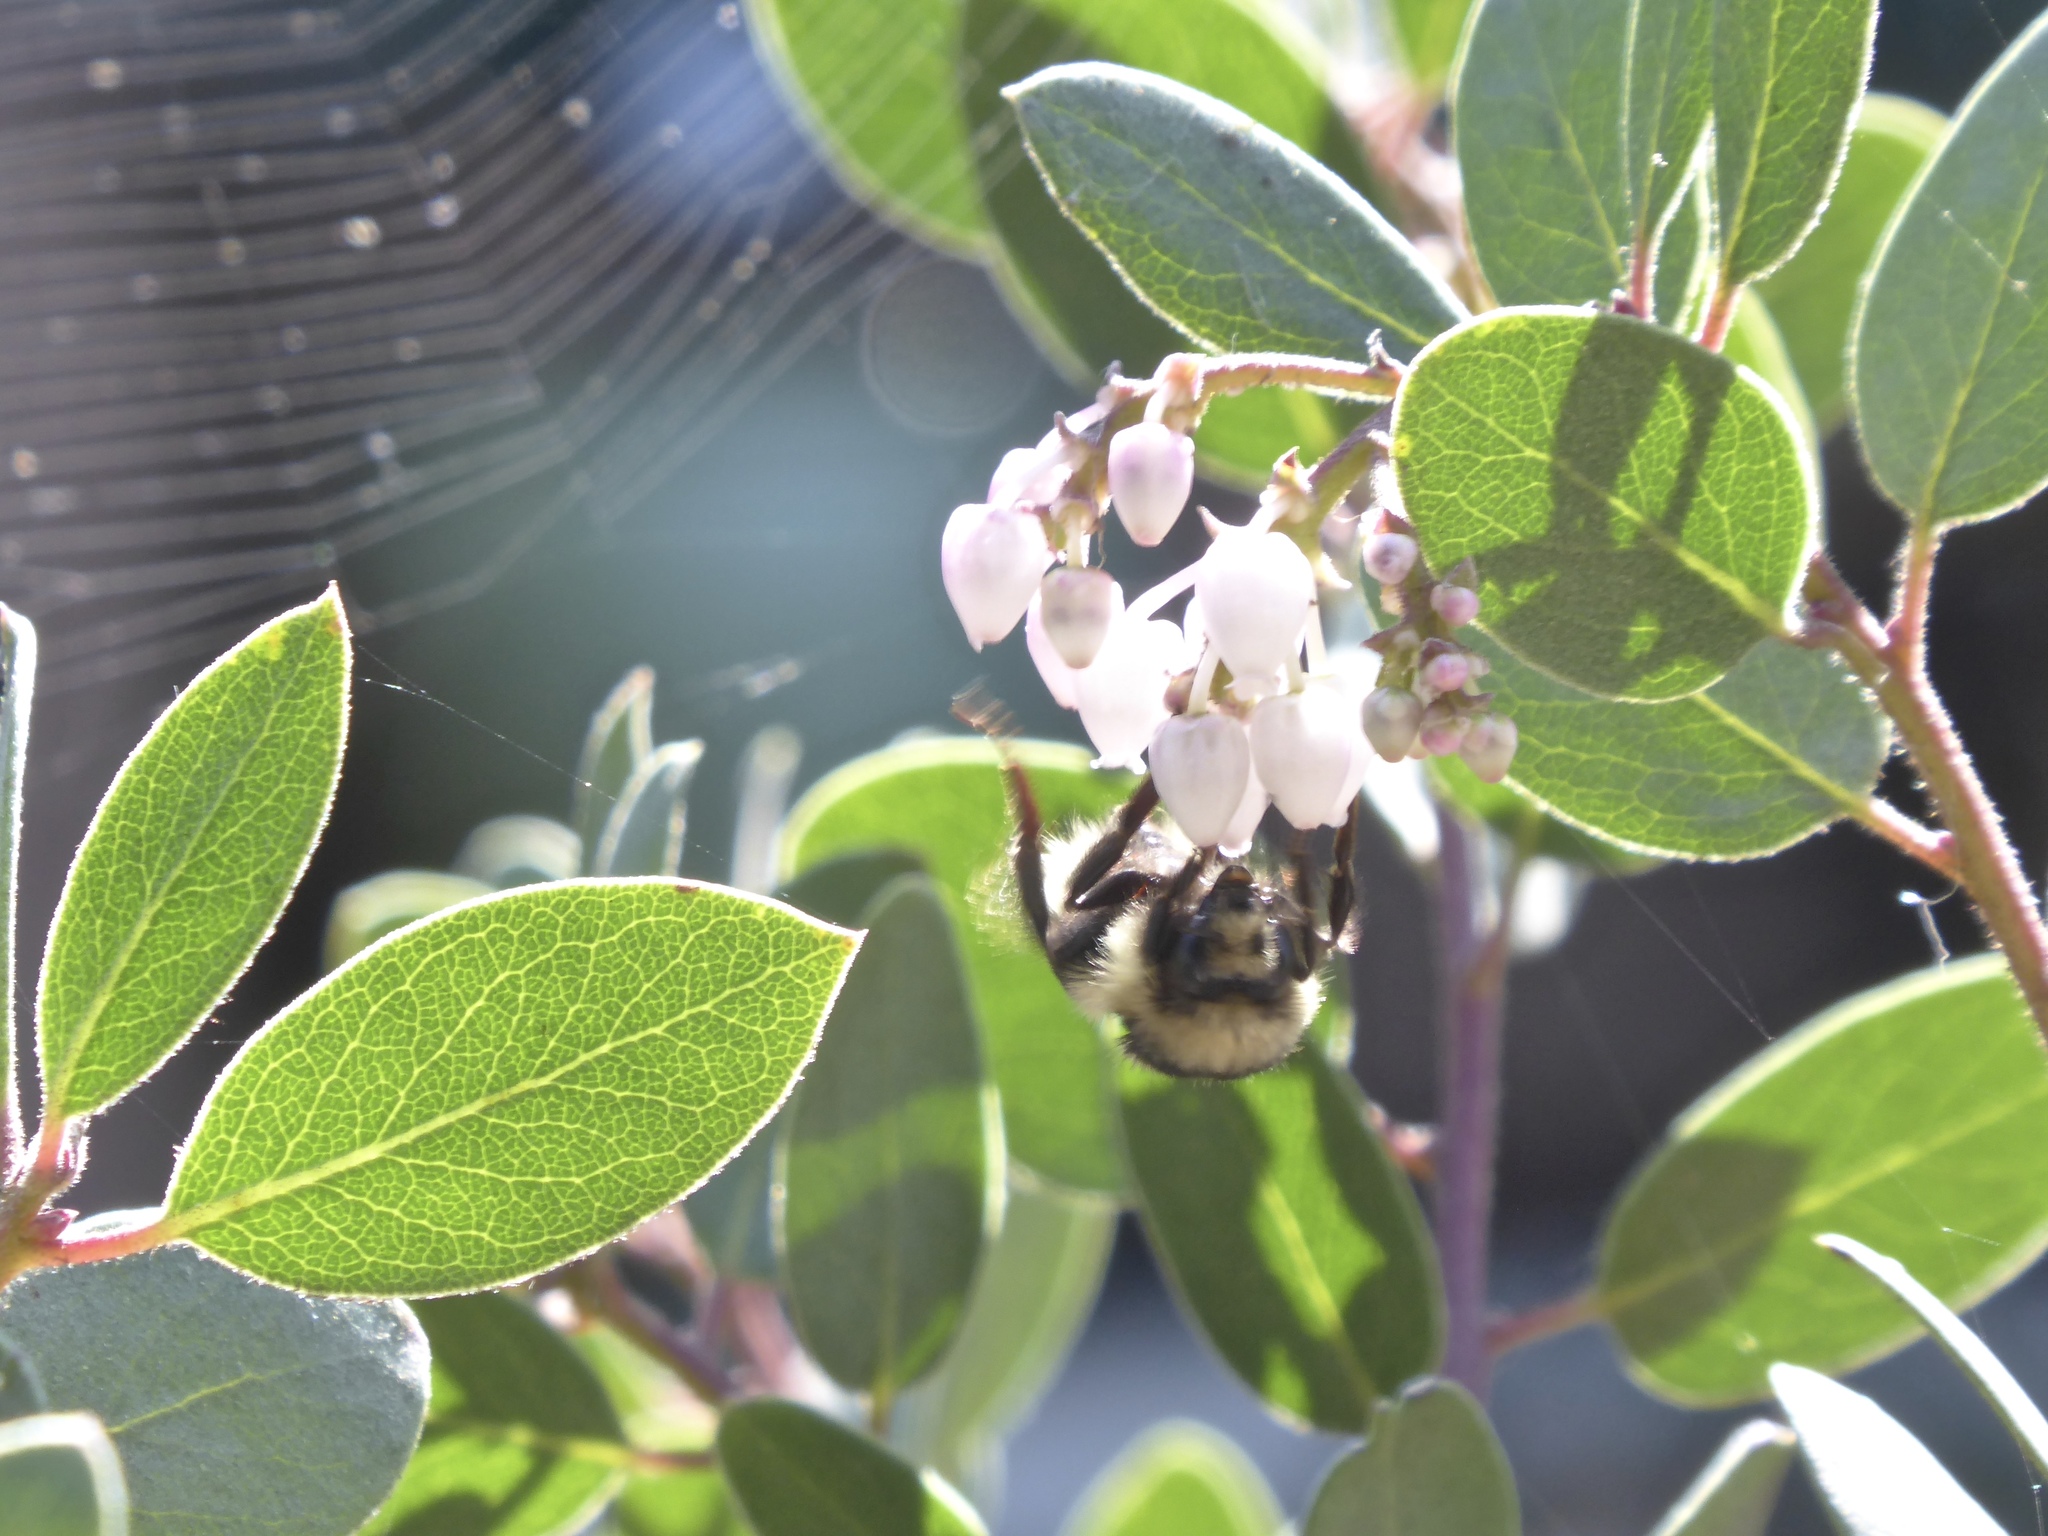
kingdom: Animalia
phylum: Arthropoda
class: Insecta
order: Hymenoptera
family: Apidae
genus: Bombus
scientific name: Bombus melanopygus
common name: Black tail bumble bee
